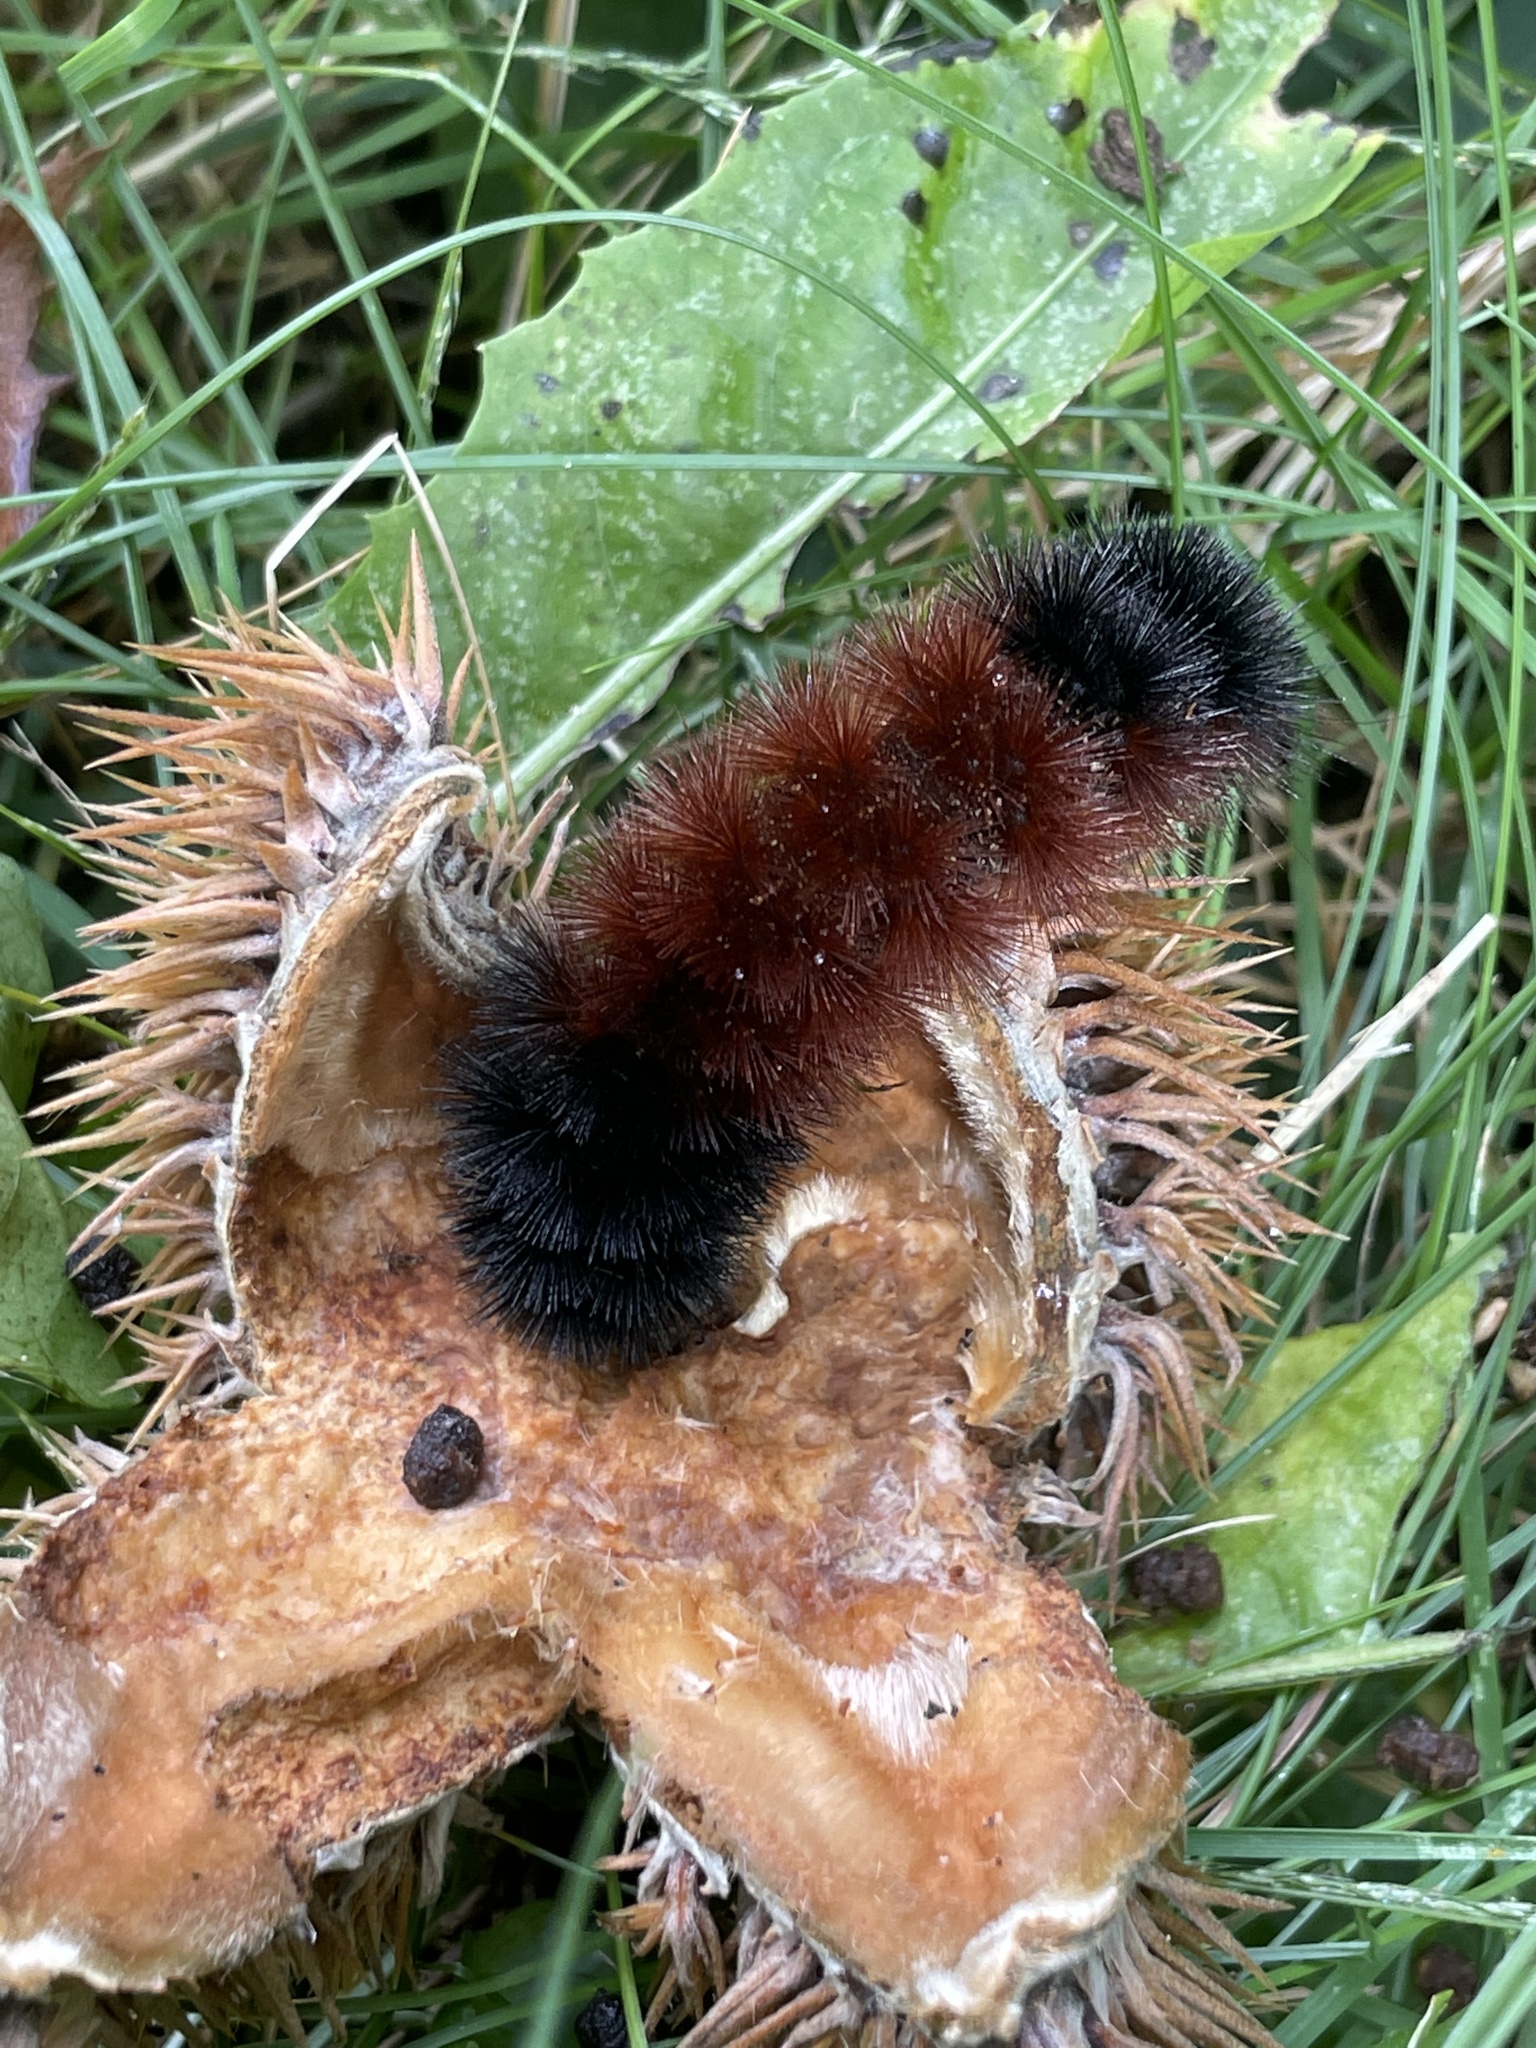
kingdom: Animalia
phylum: Arthropoda
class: Insecta
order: Lepidoptera
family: Erebidae
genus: Pyrrharctia
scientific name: Pyrrharctia isabella
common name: Isabella tiger moth
